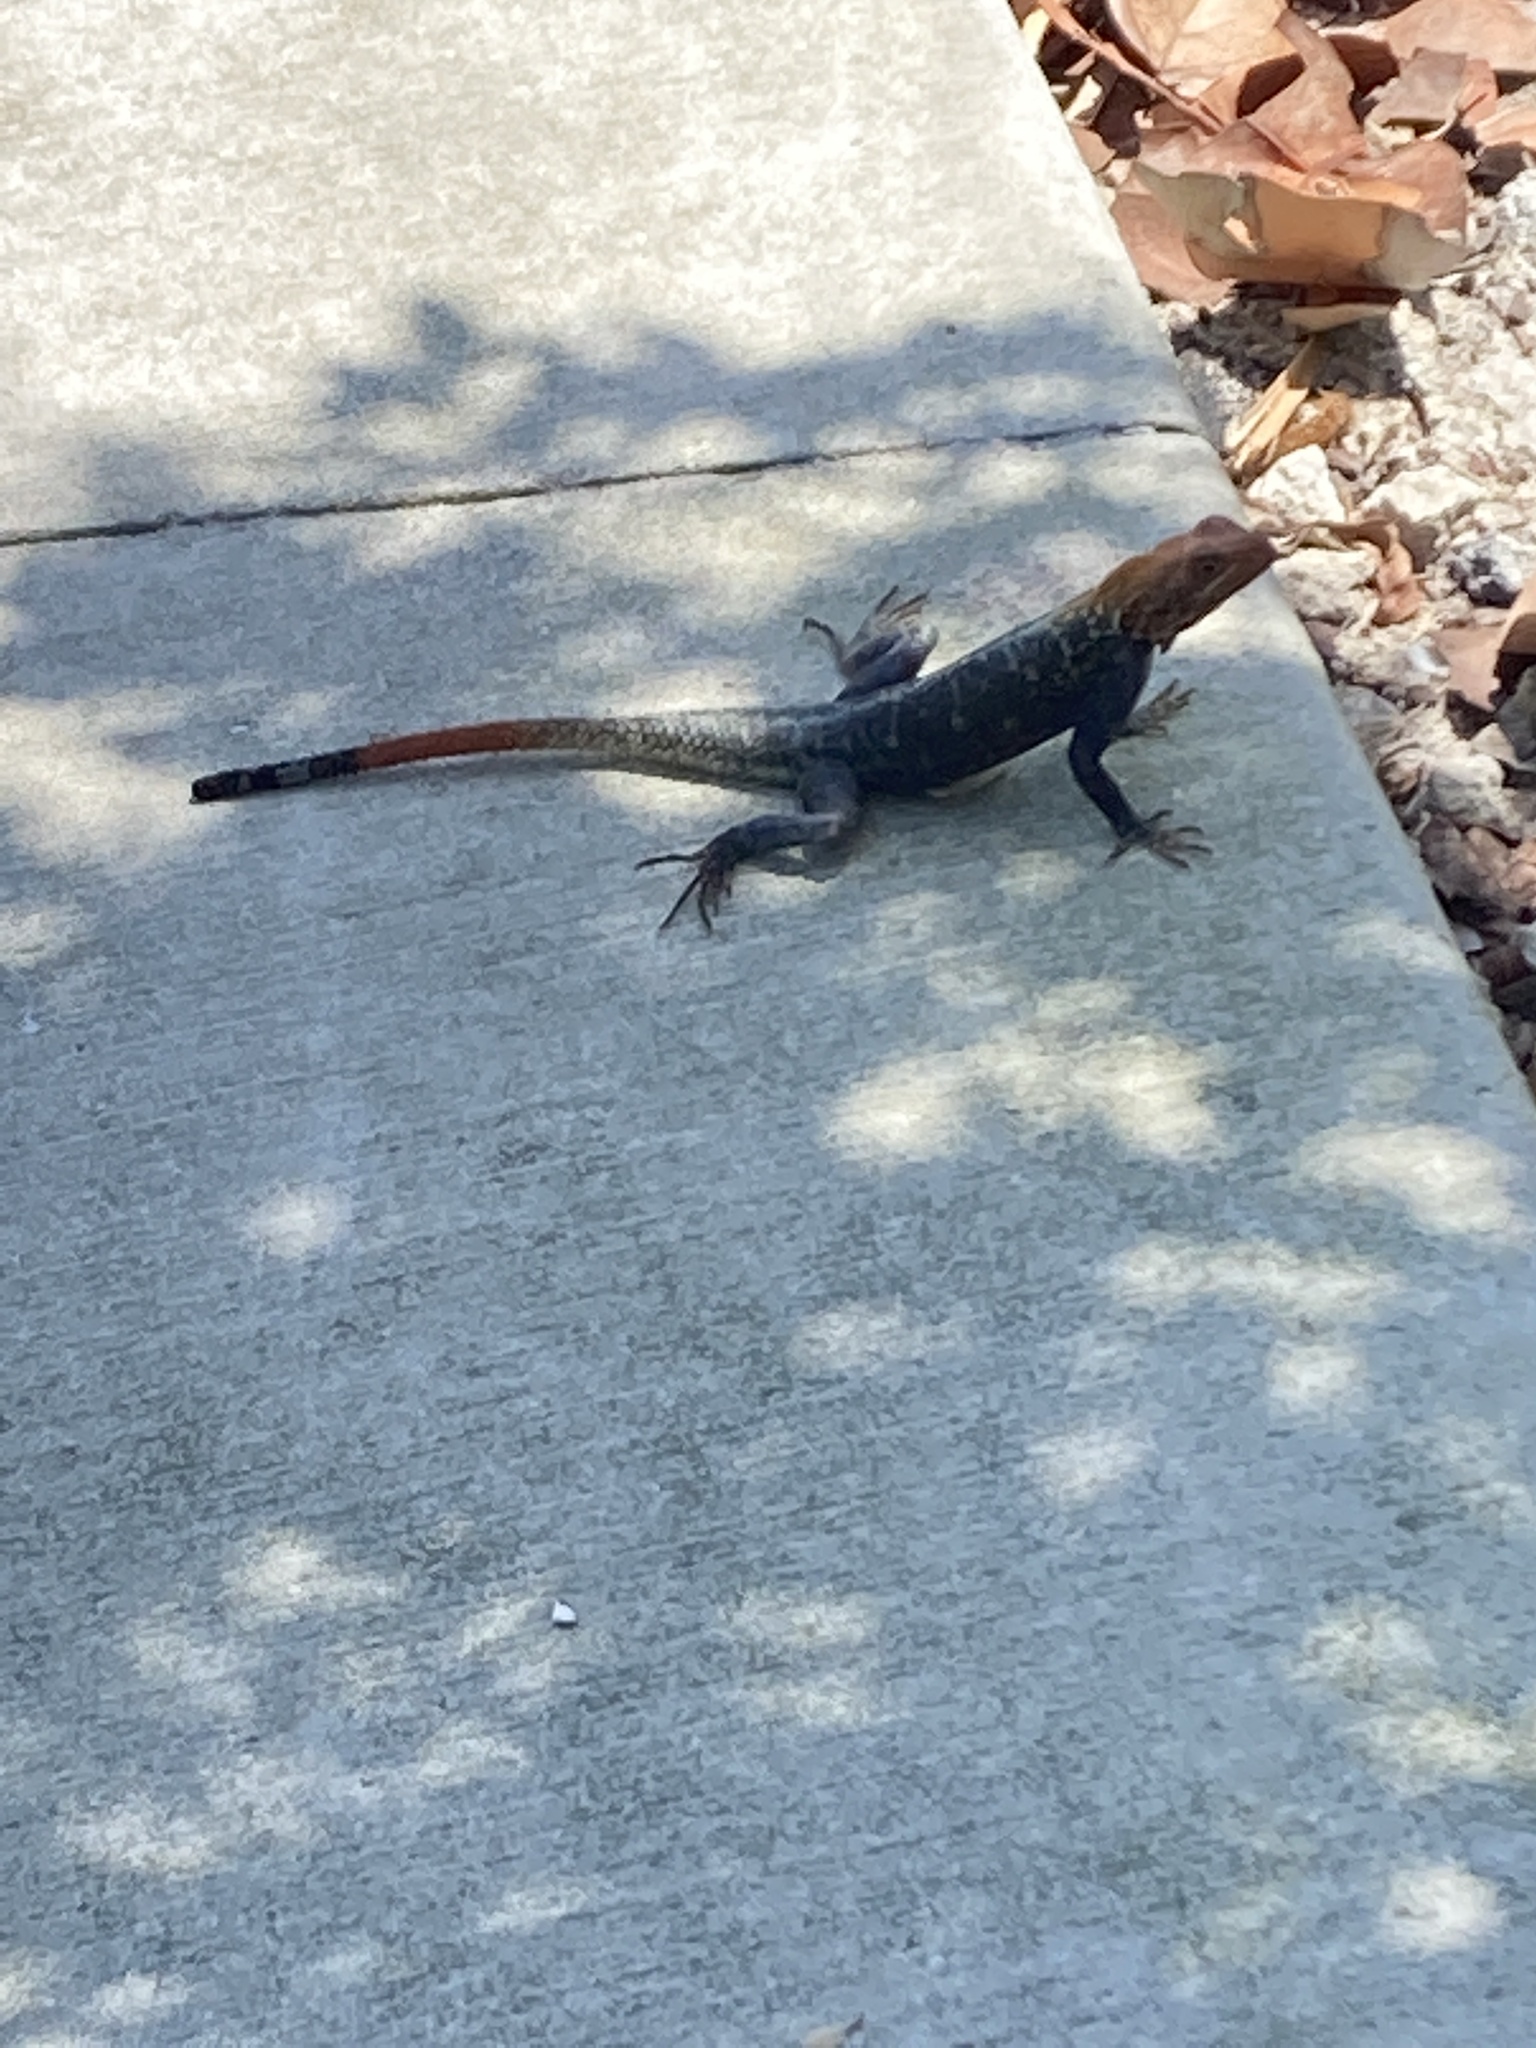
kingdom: Animalia
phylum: Chordata
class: Squamata
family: Agamidae
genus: Agama
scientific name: Agama picticauda
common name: Red-headed agama
